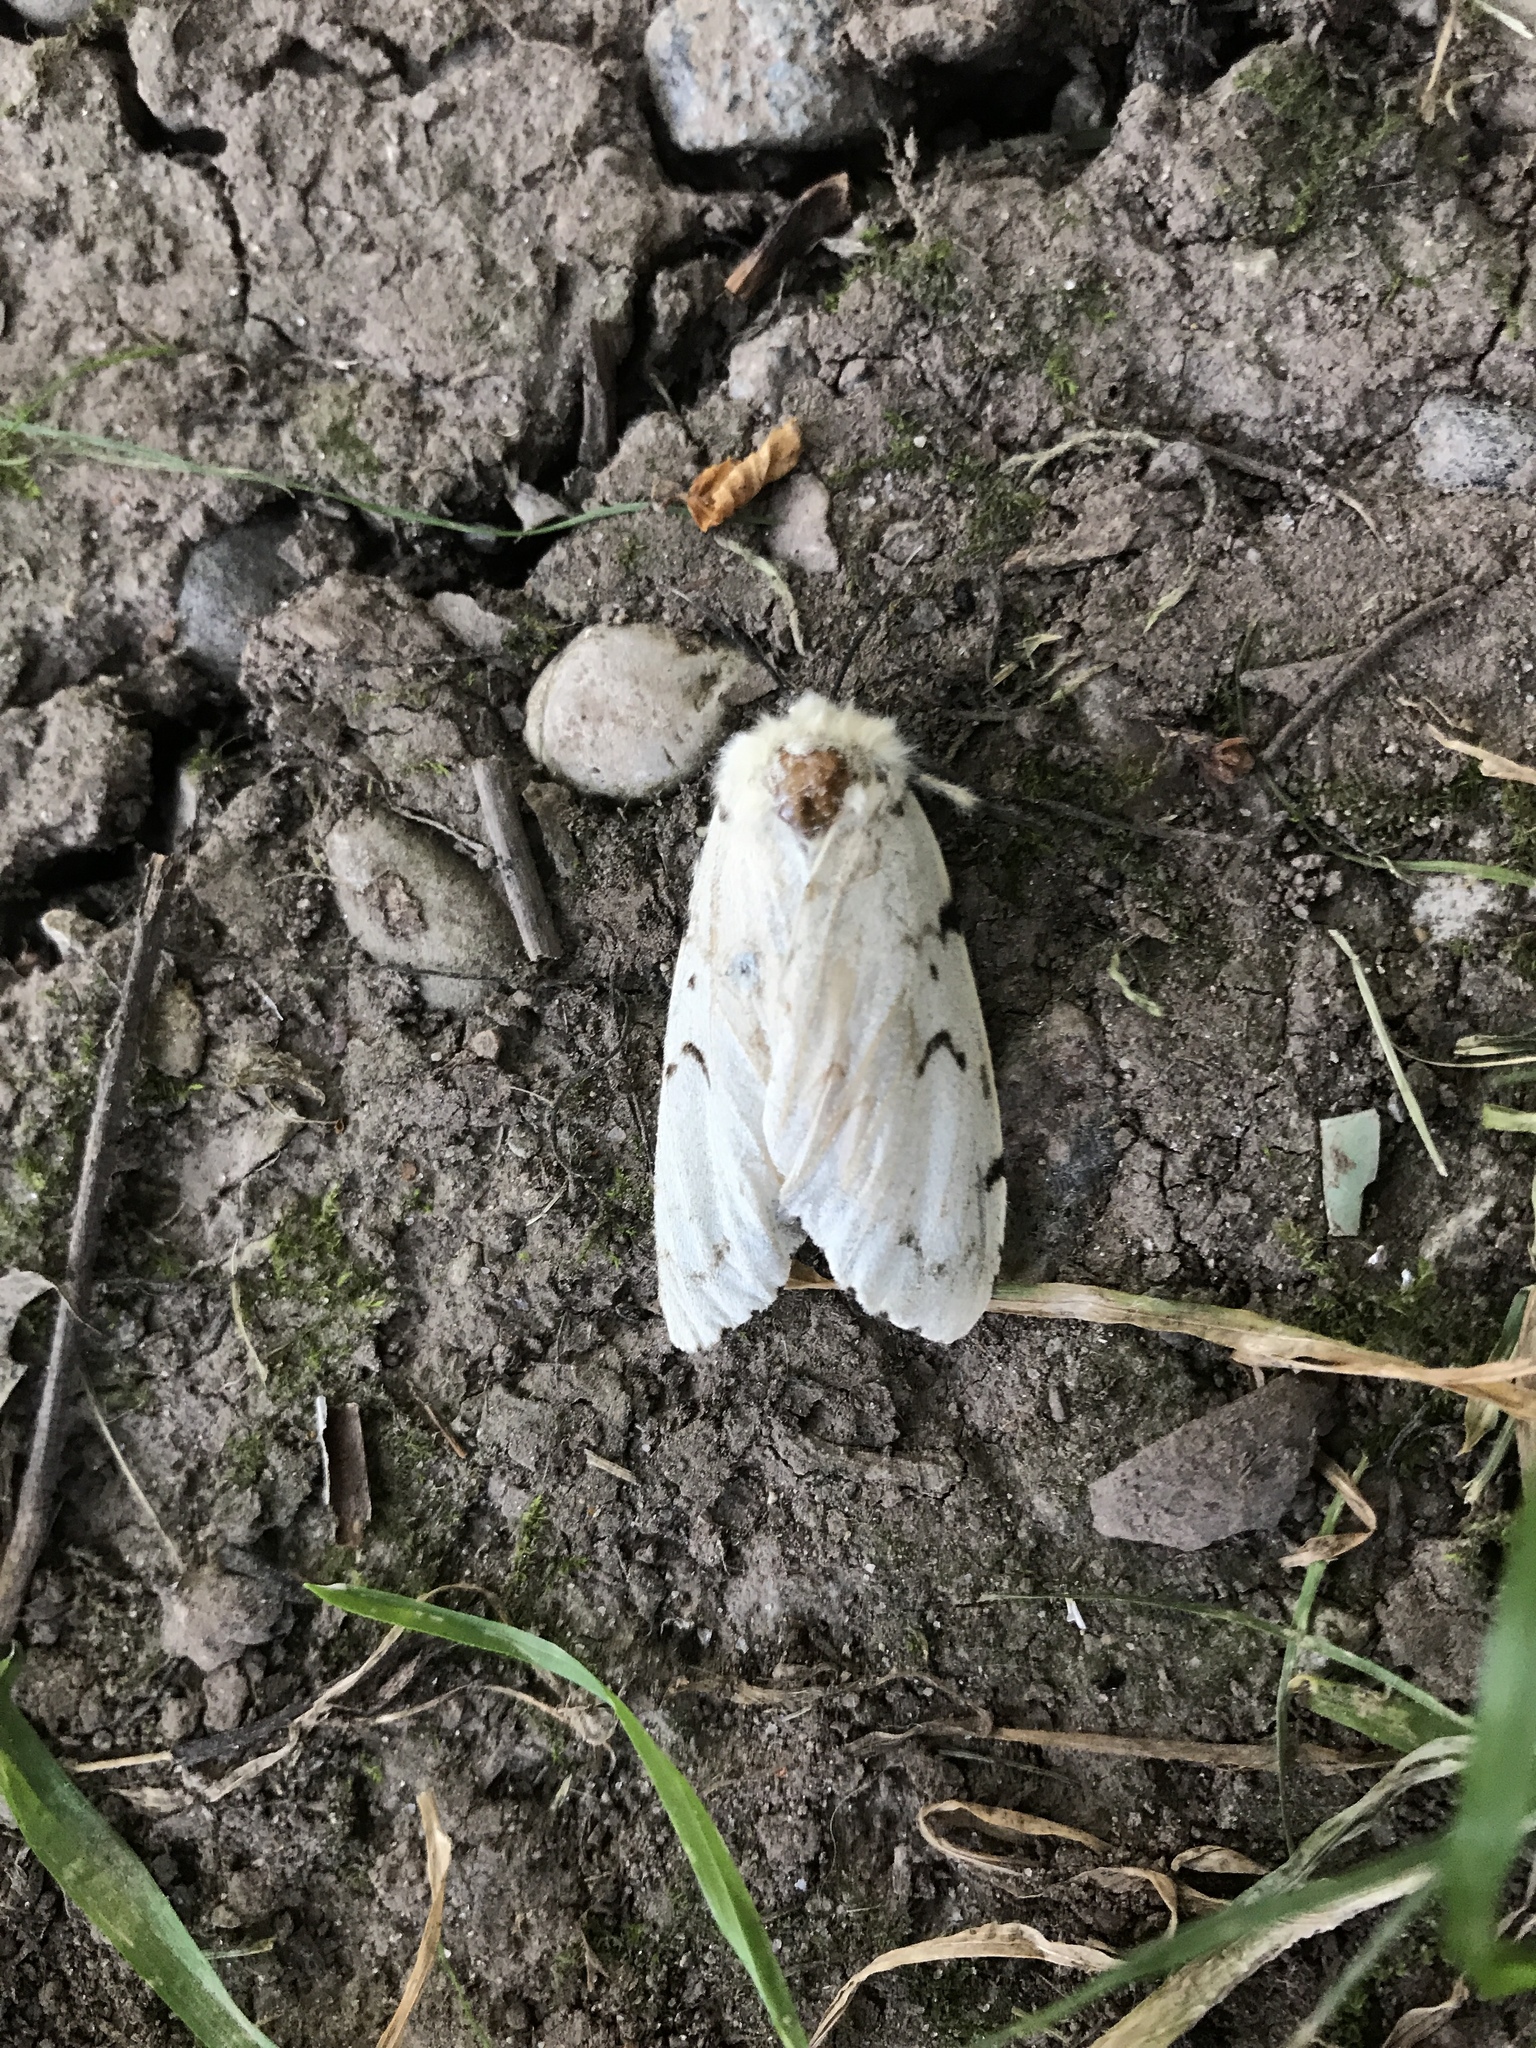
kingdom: Animalia
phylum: Arthropoda
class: Insecta
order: Lepidoptera
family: Erebidae
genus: Lymantria
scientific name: Lymantria dispar
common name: Gypsy moth
